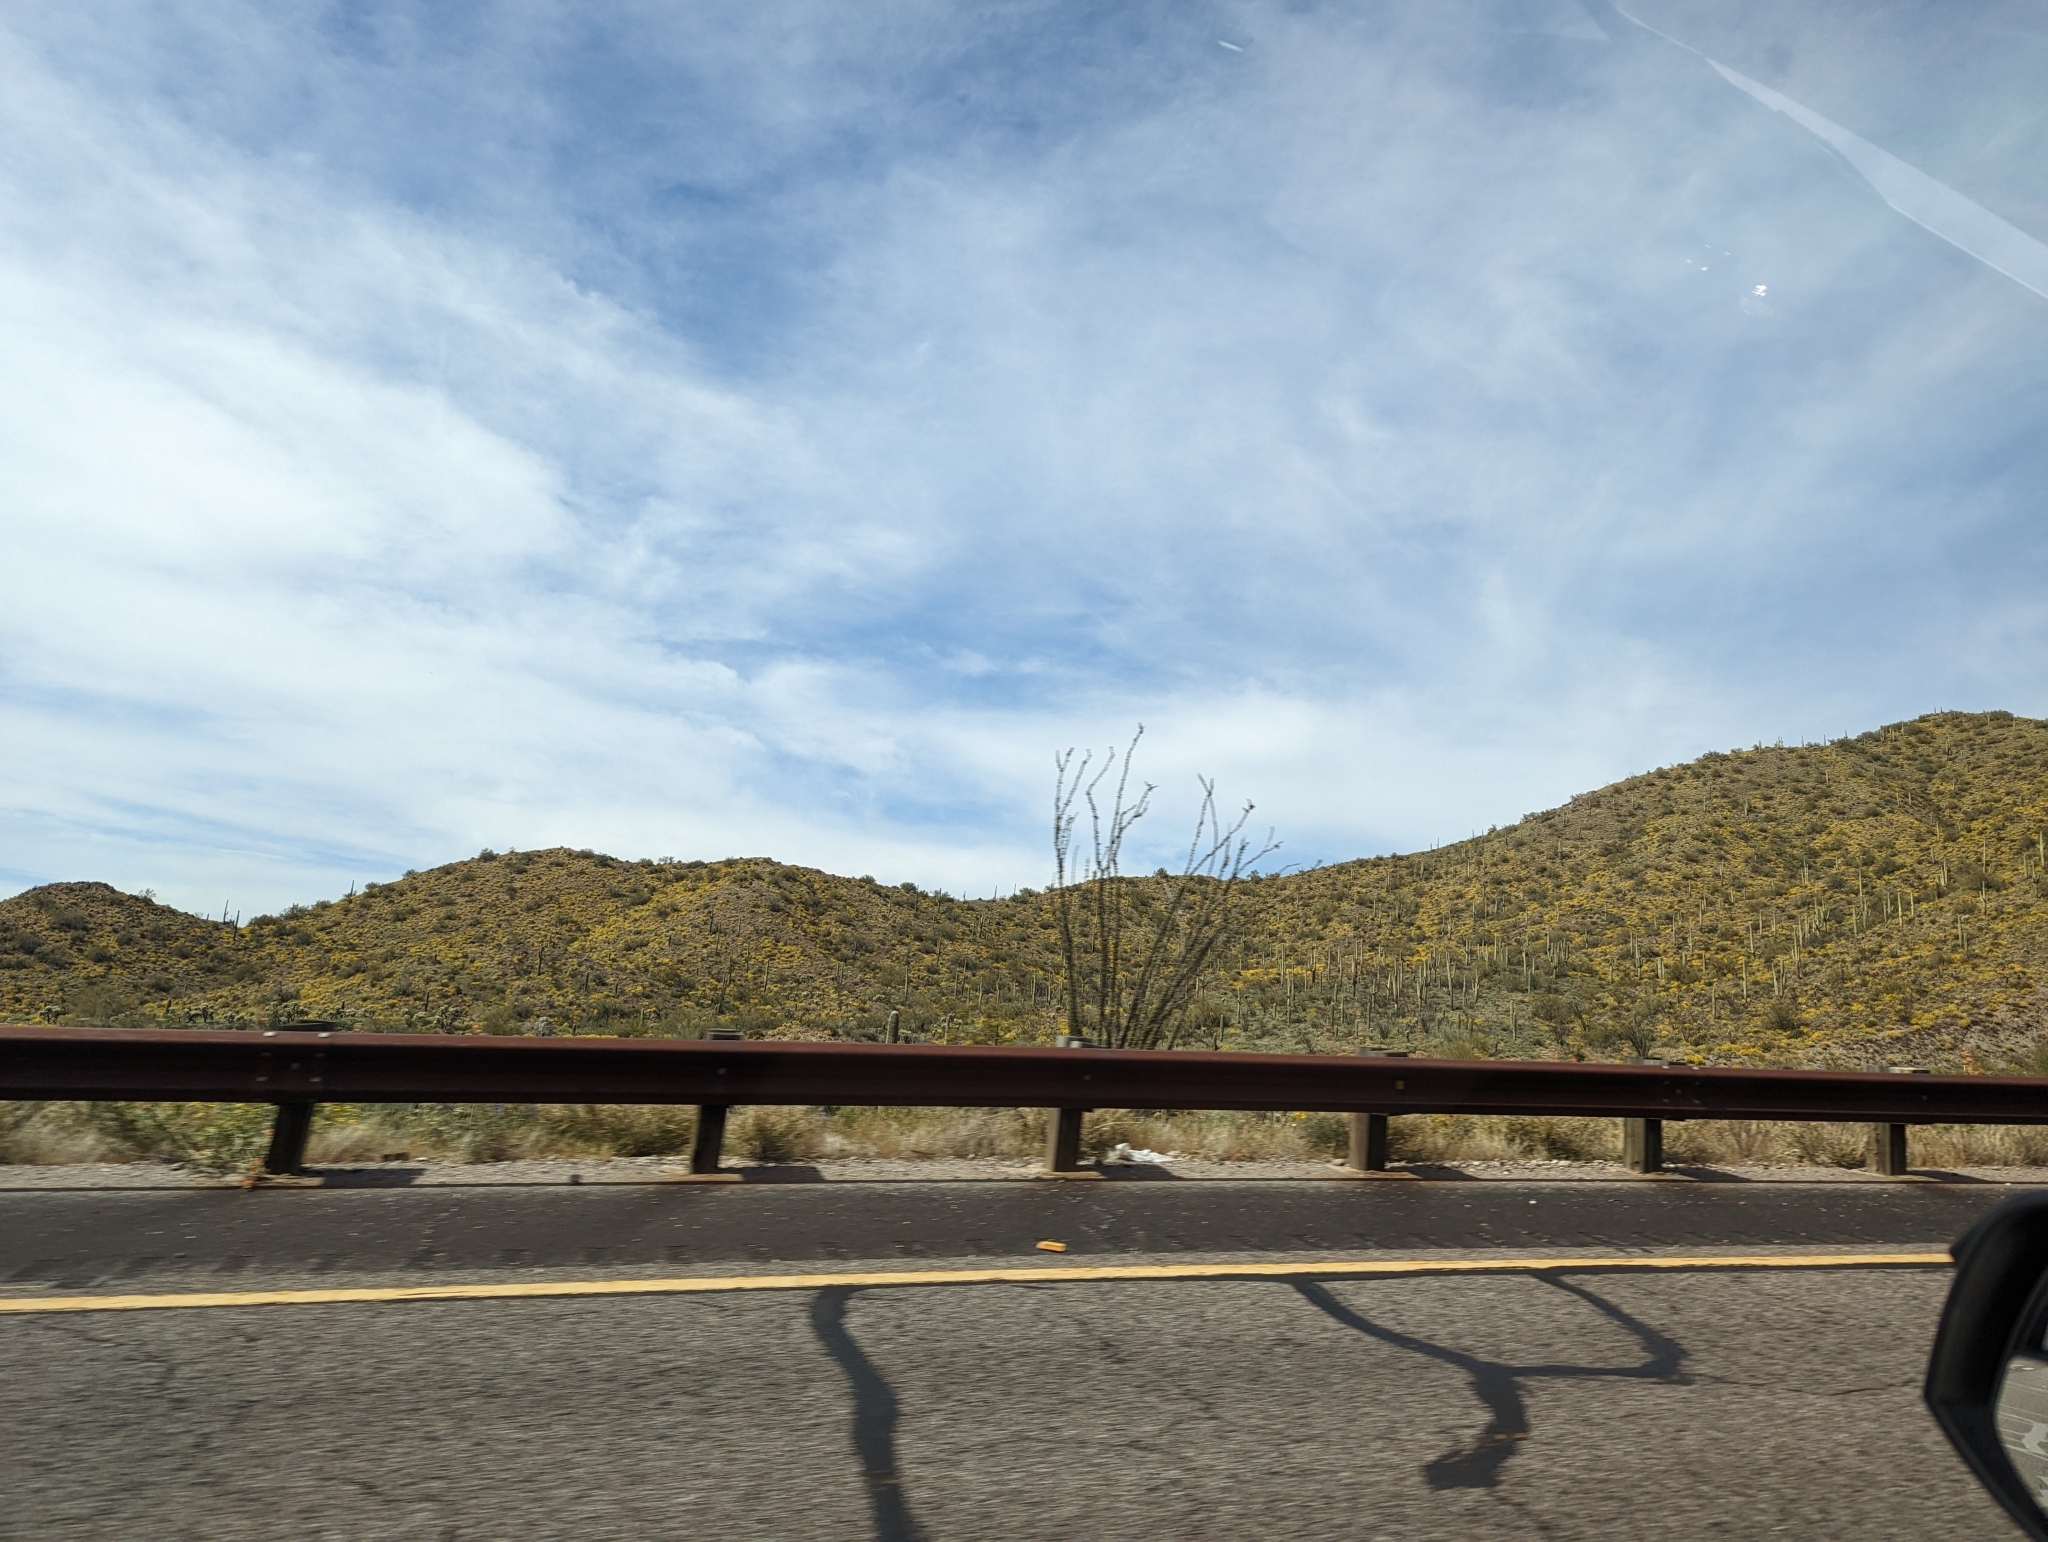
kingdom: Plantae
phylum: Tracheophyta
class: Magnoliopsida
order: Ericales
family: Fouquieriaceae
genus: Fouquieria
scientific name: Fouquieria splendens
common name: Vine-cactus
